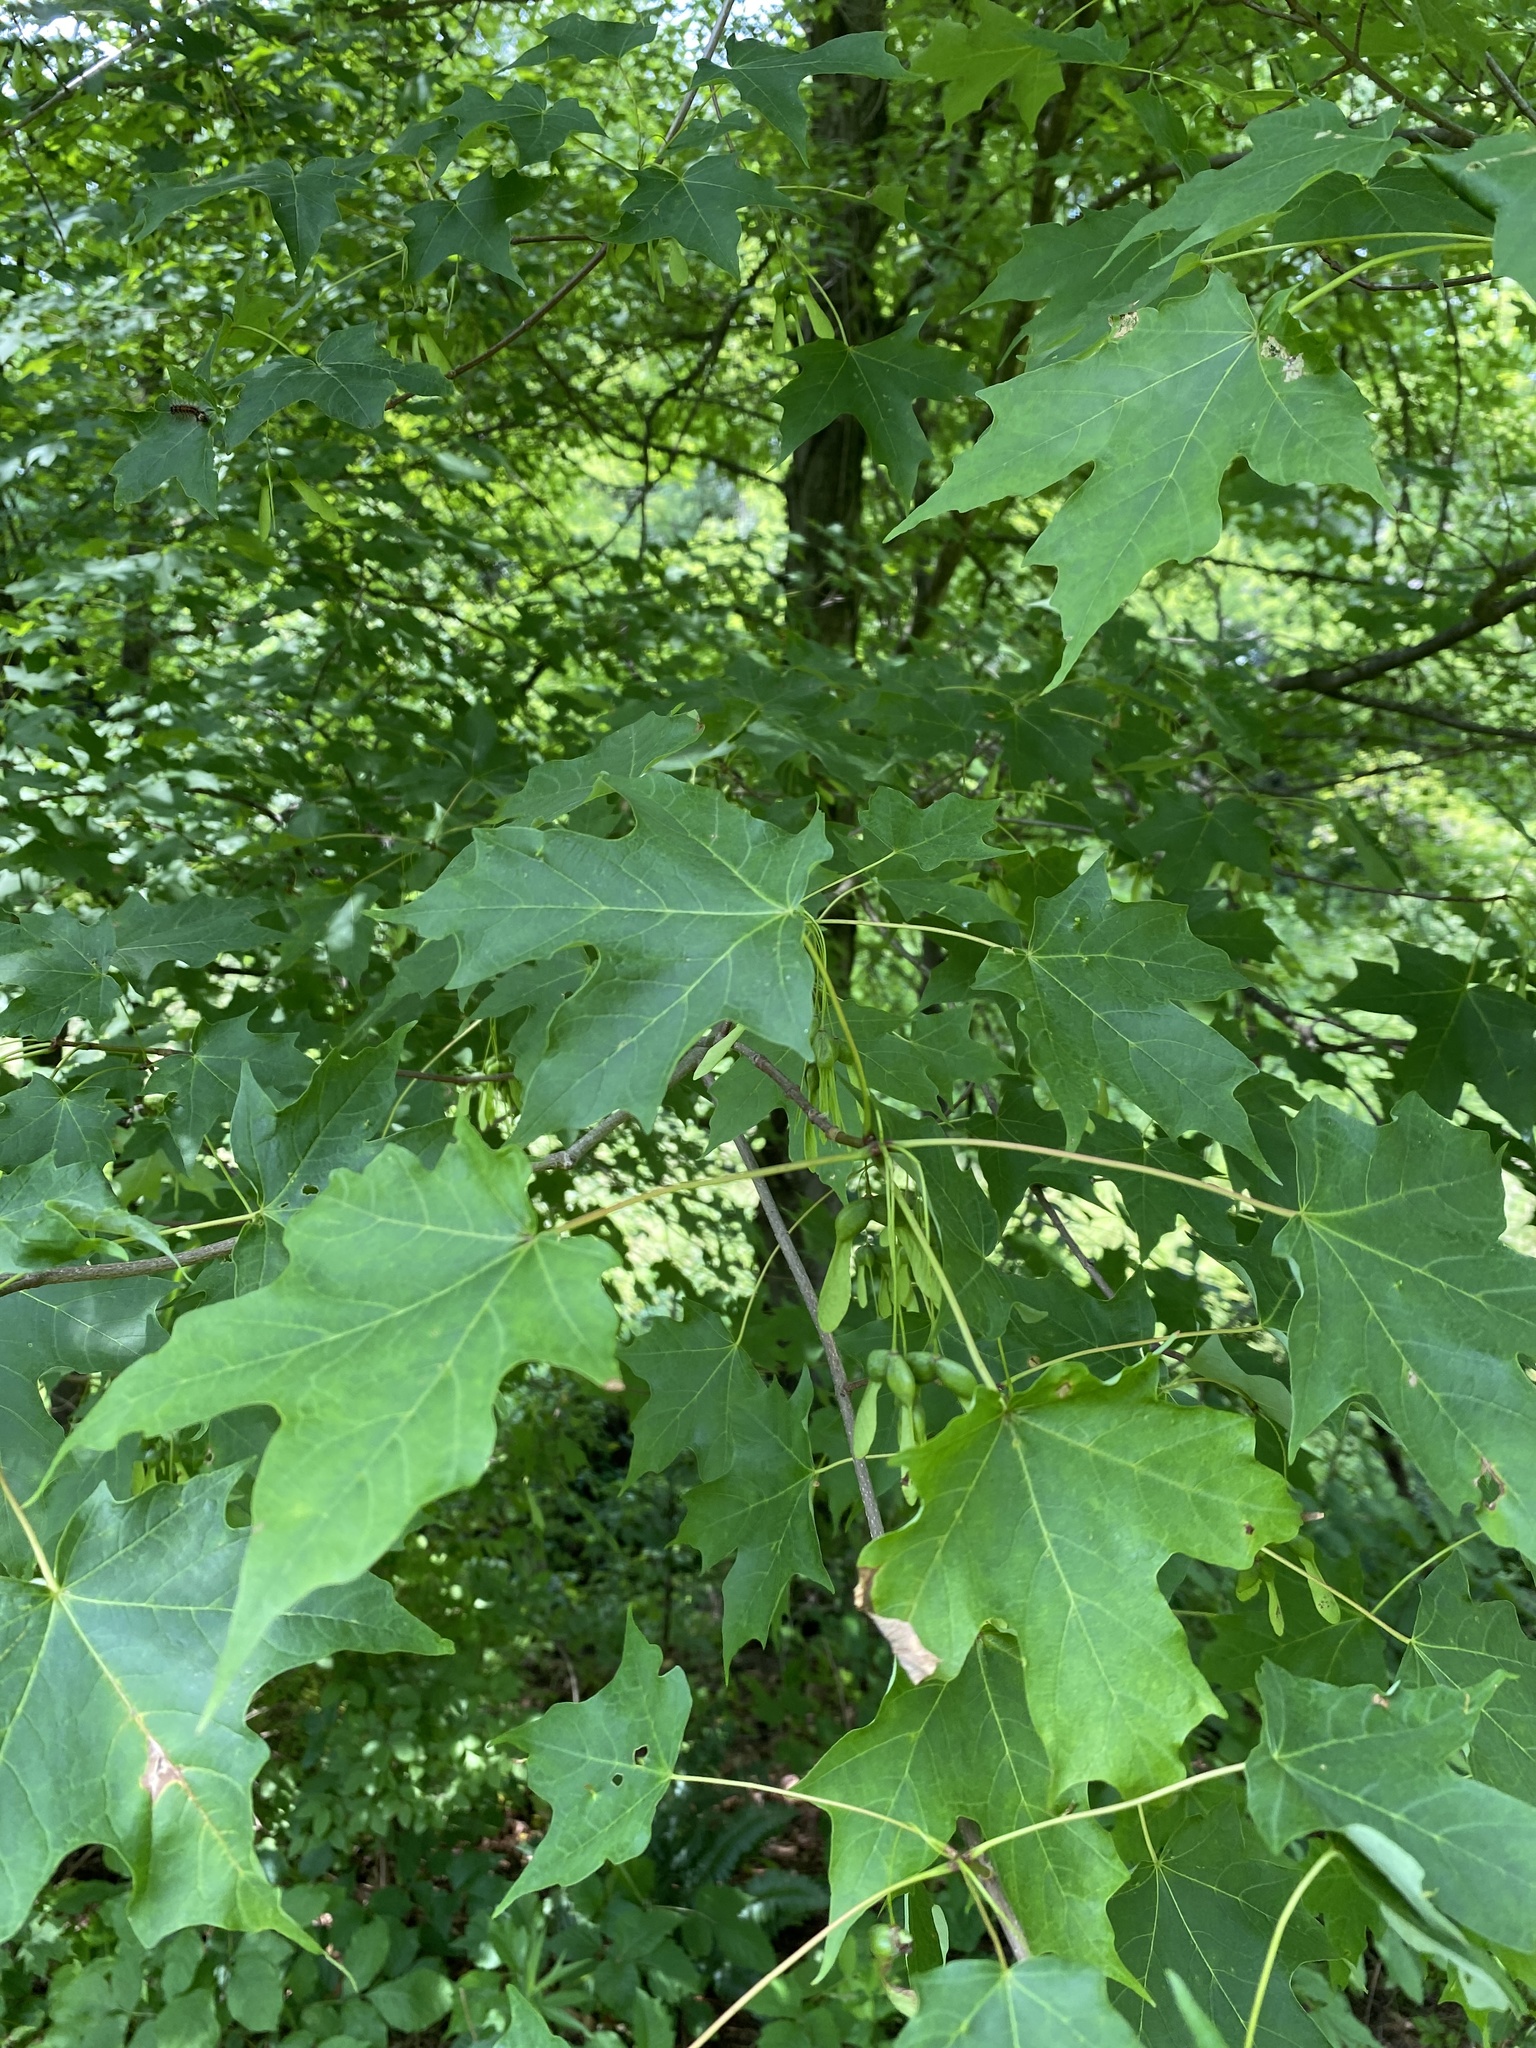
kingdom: Plantae
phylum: Tracheophyta
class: Magnoliopsida
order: Sapindales
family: Sapindaceae
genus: Acer
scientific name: Acer saccharum
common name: Sugar maple
